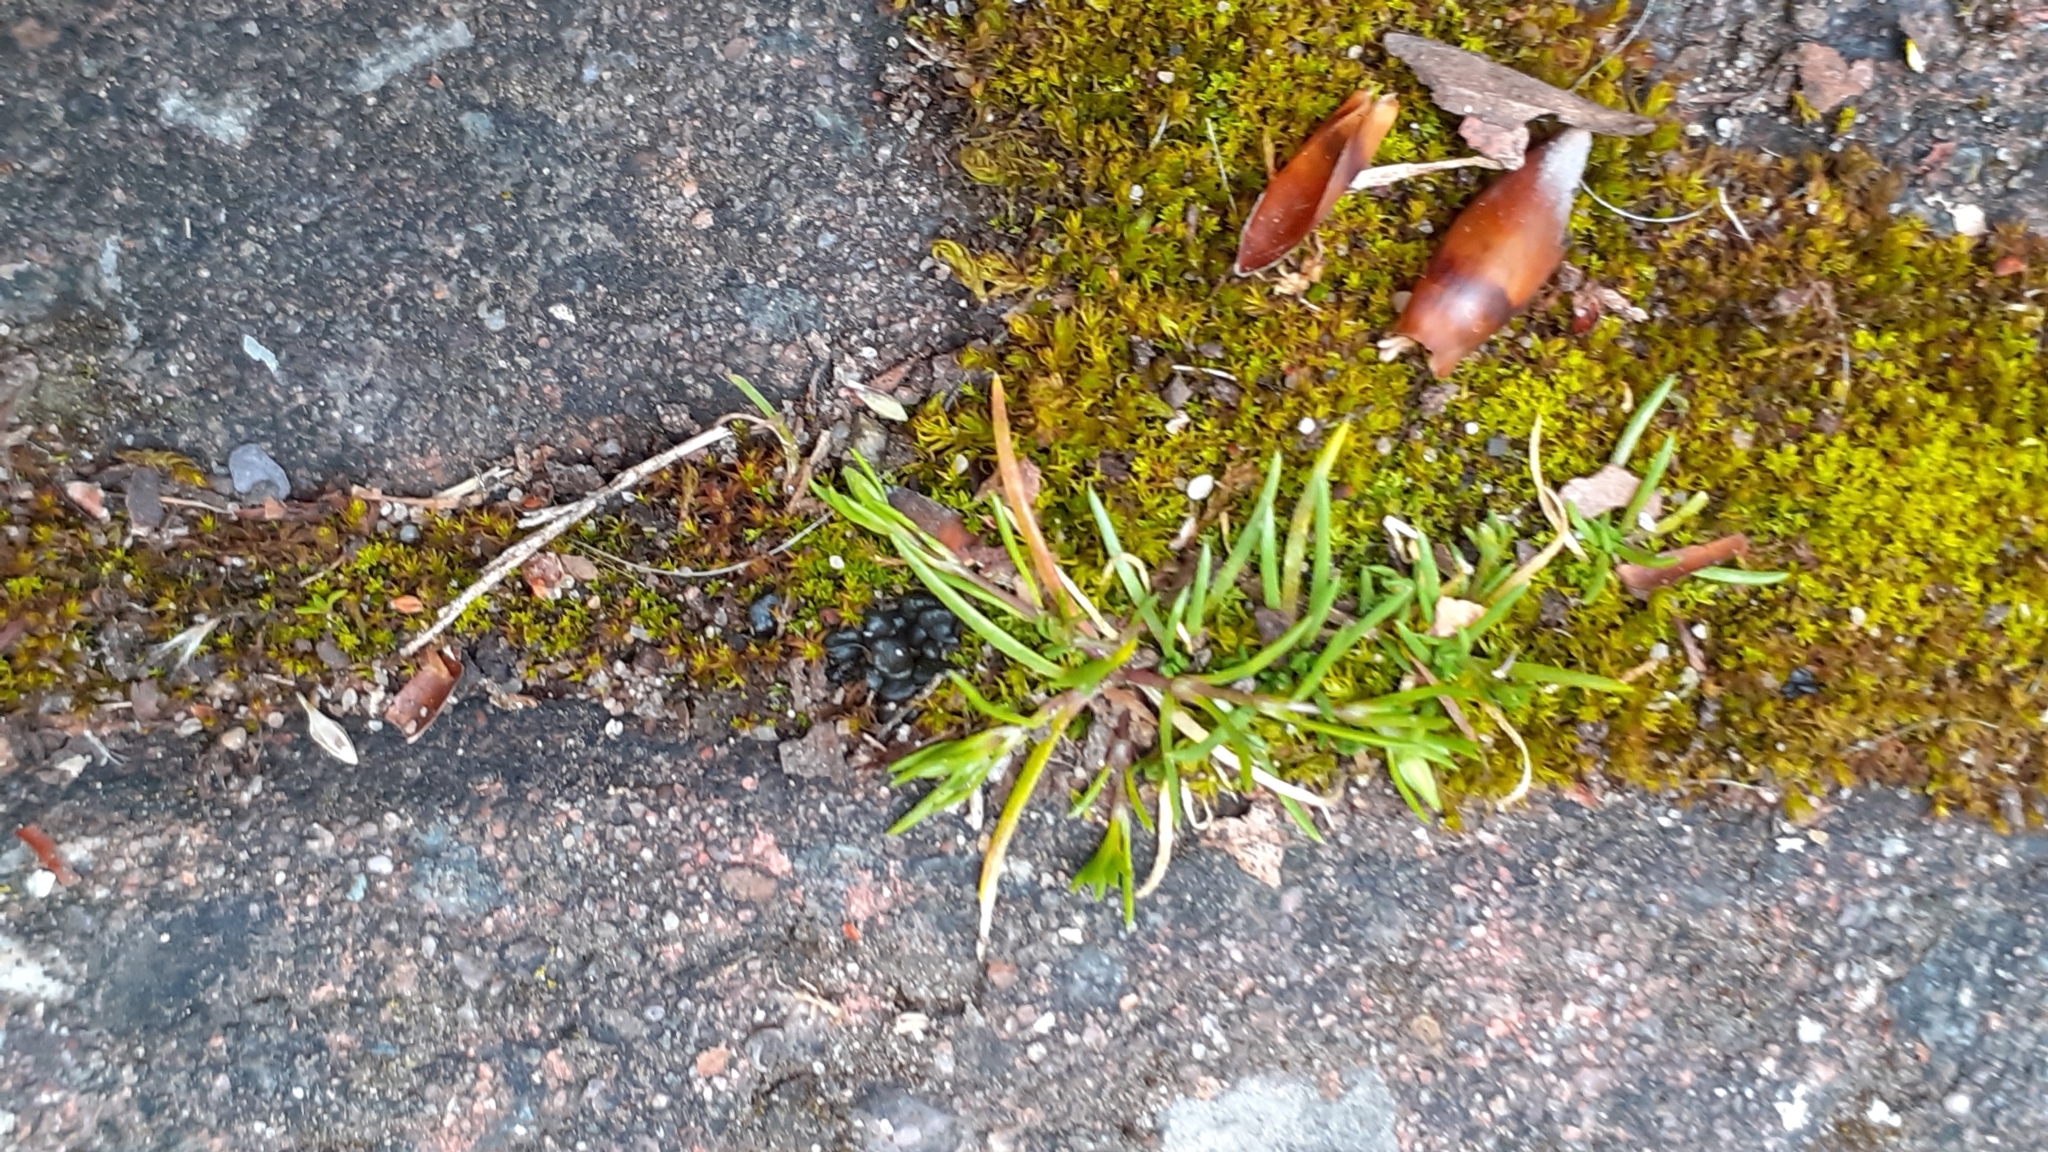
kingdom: Plantae
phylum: Tracheophyta
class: Magnoliopsida
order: Caryophyllales
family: Caryophyllaceae
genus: Sagina
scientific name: Sagina procumbens
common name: Procumbent pearlwort
